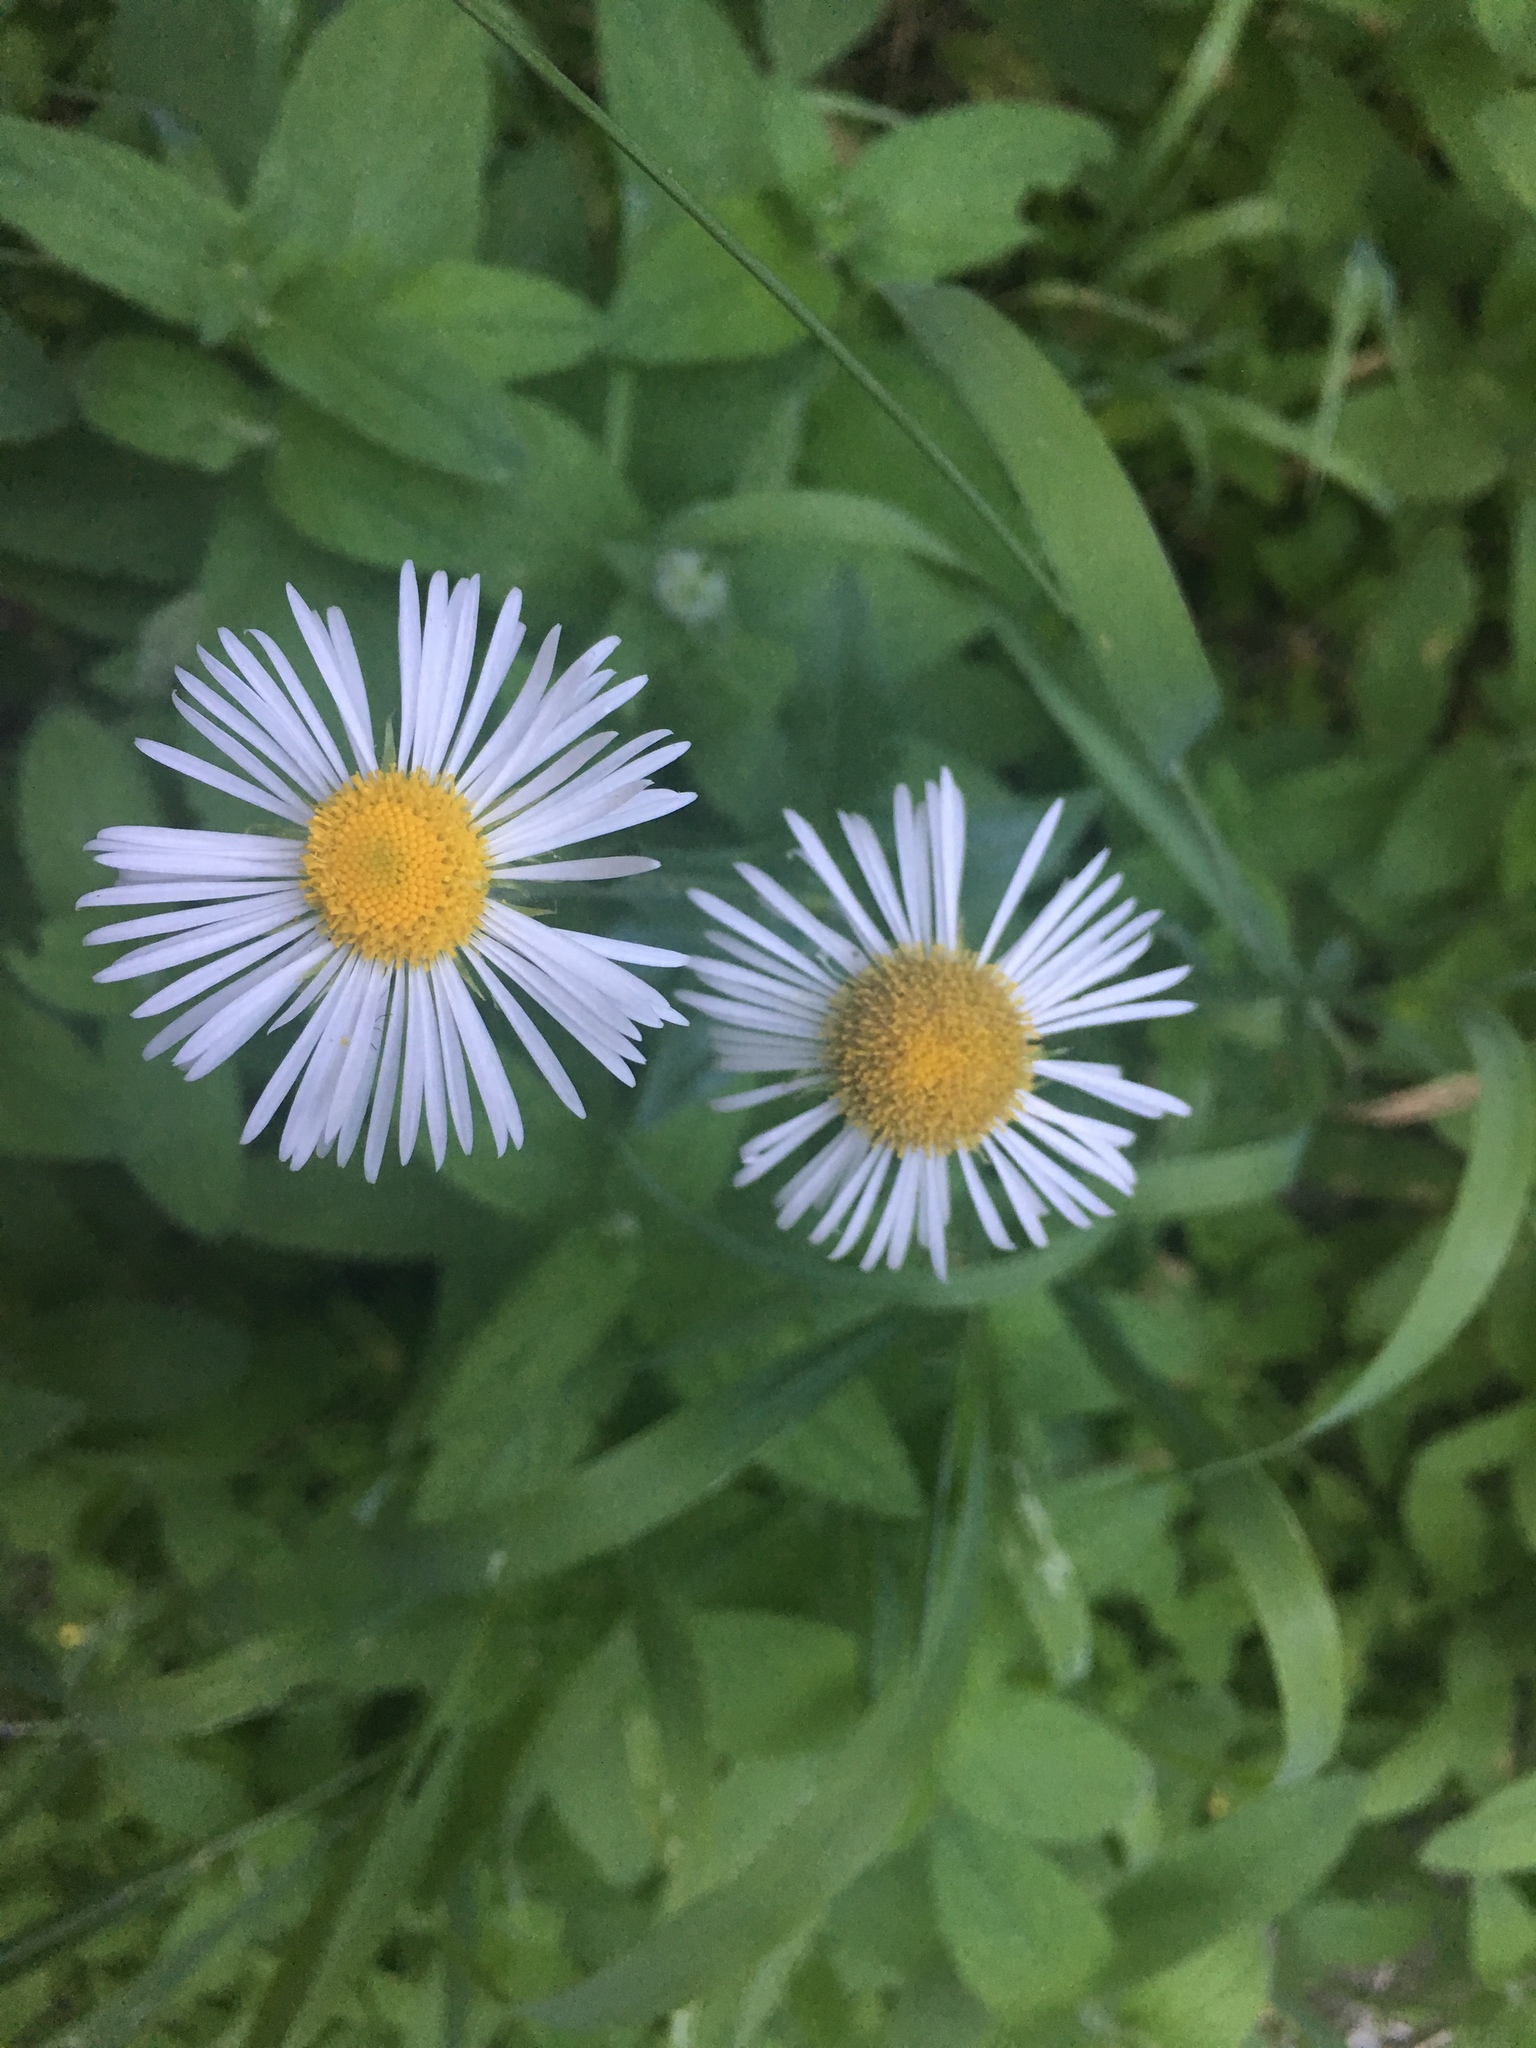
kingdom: Plantae
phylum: Tracheophyta
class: Magnoliopsida
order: Asterales
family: Asteraceae
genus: Erigeron
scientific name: Erigeron coulteri
